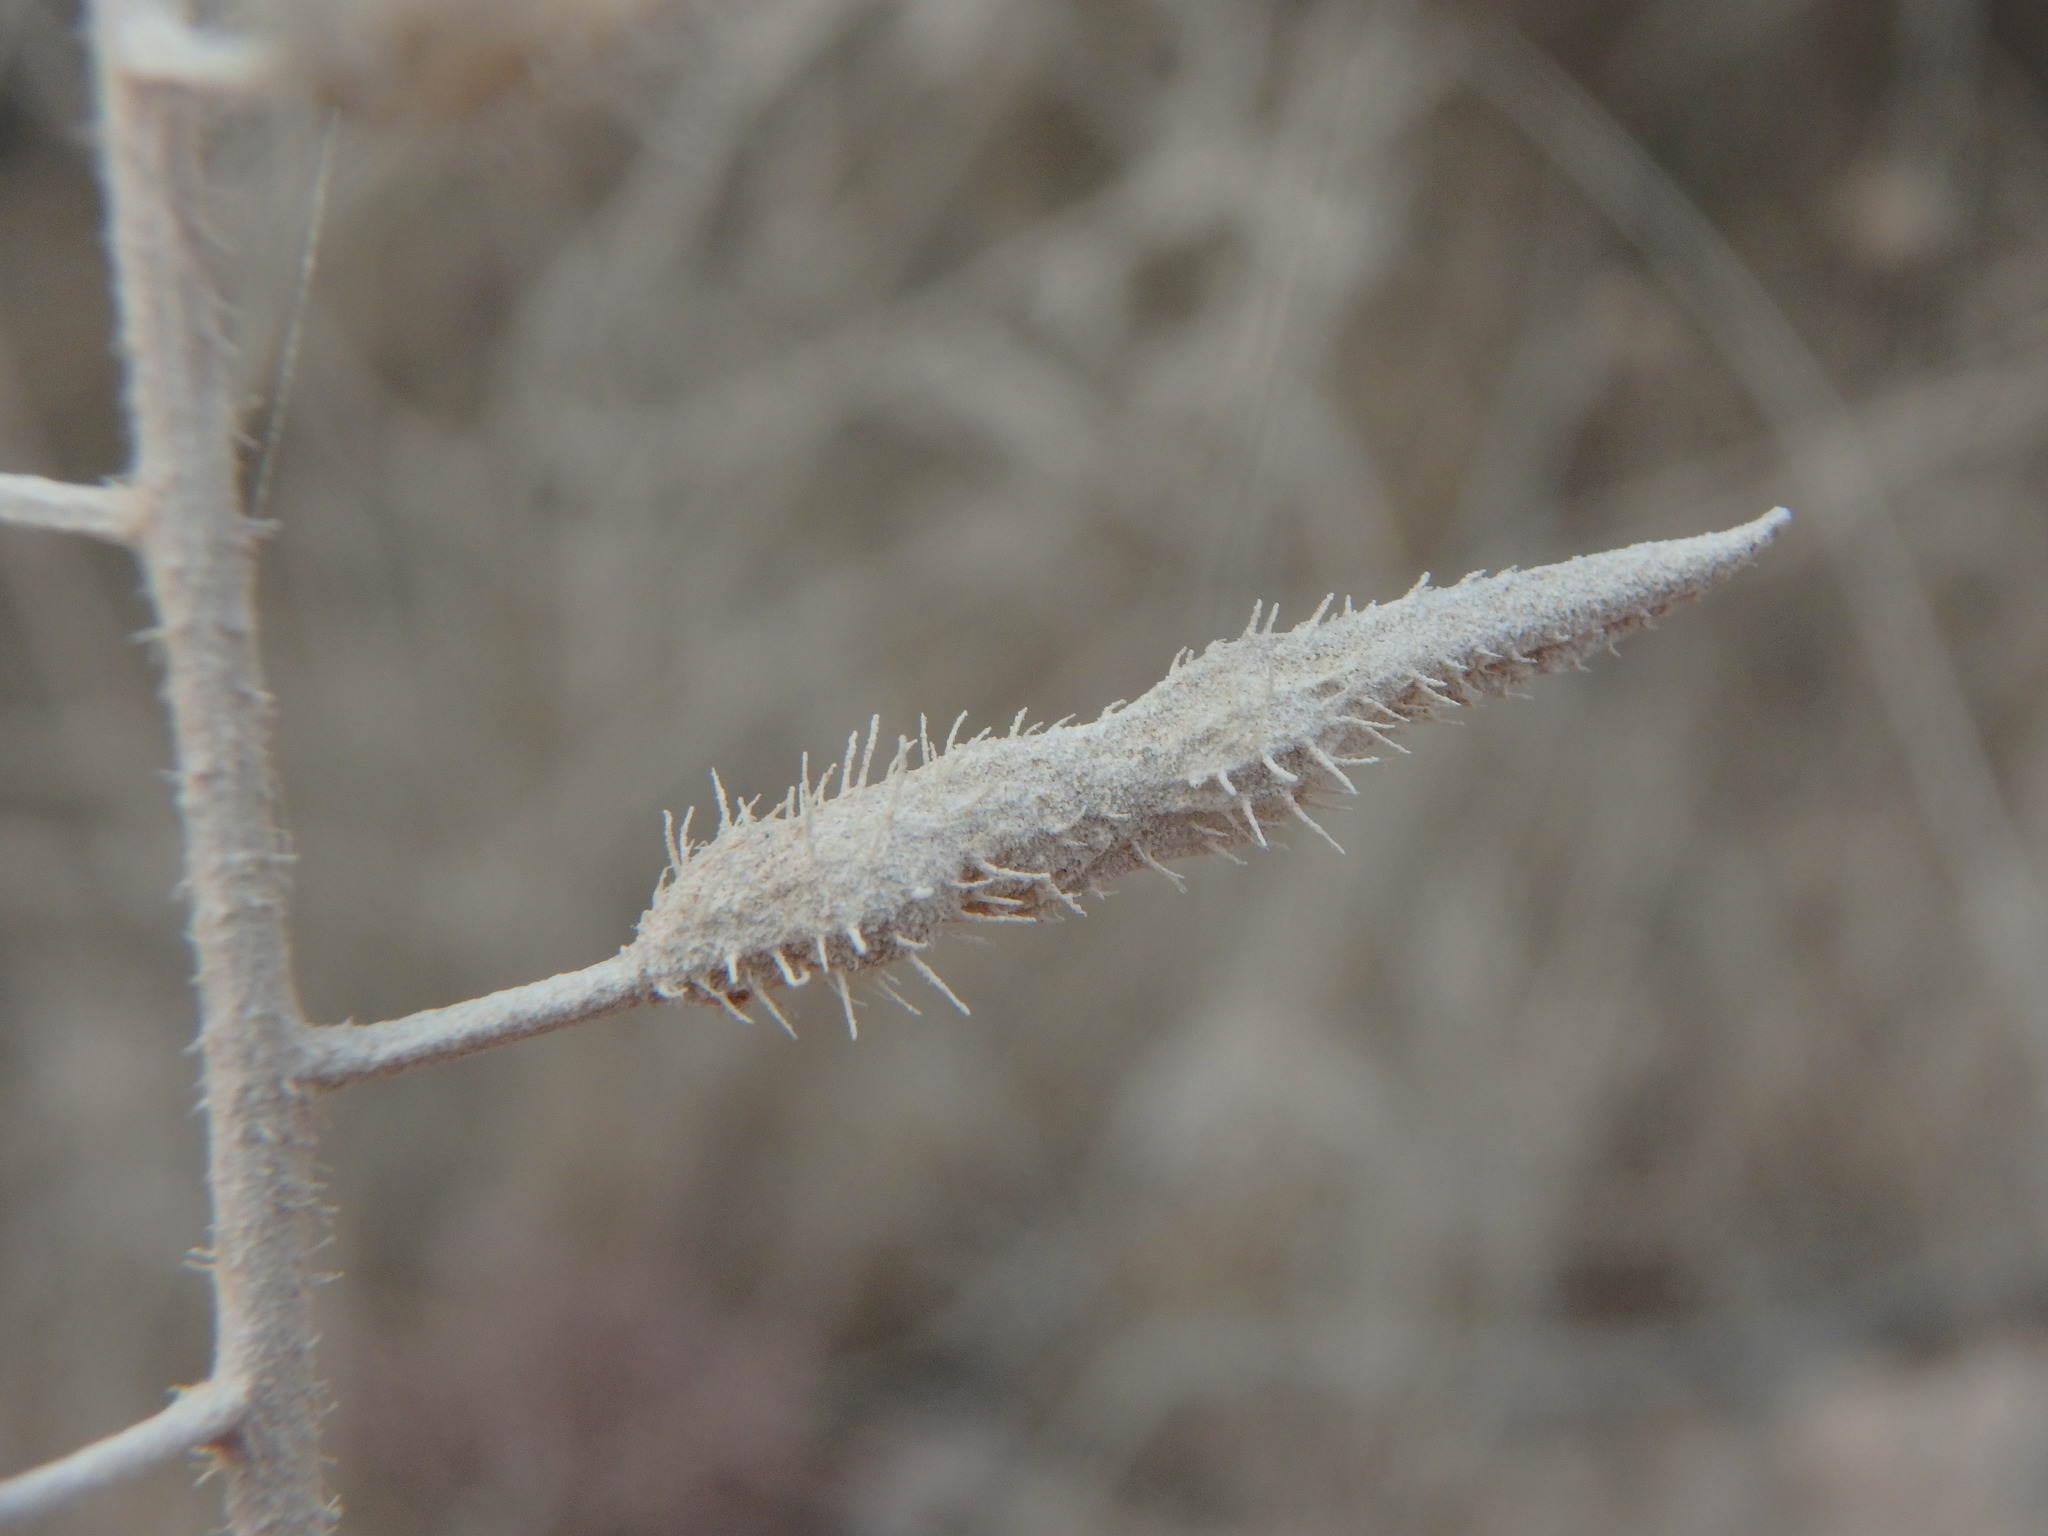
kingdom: Plantae
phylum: Tracheophyta
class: Magnoliopsida
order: Brassicales
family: Brassicaceae
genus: Sinapis
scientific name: Sinapis alba
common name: White mustard
